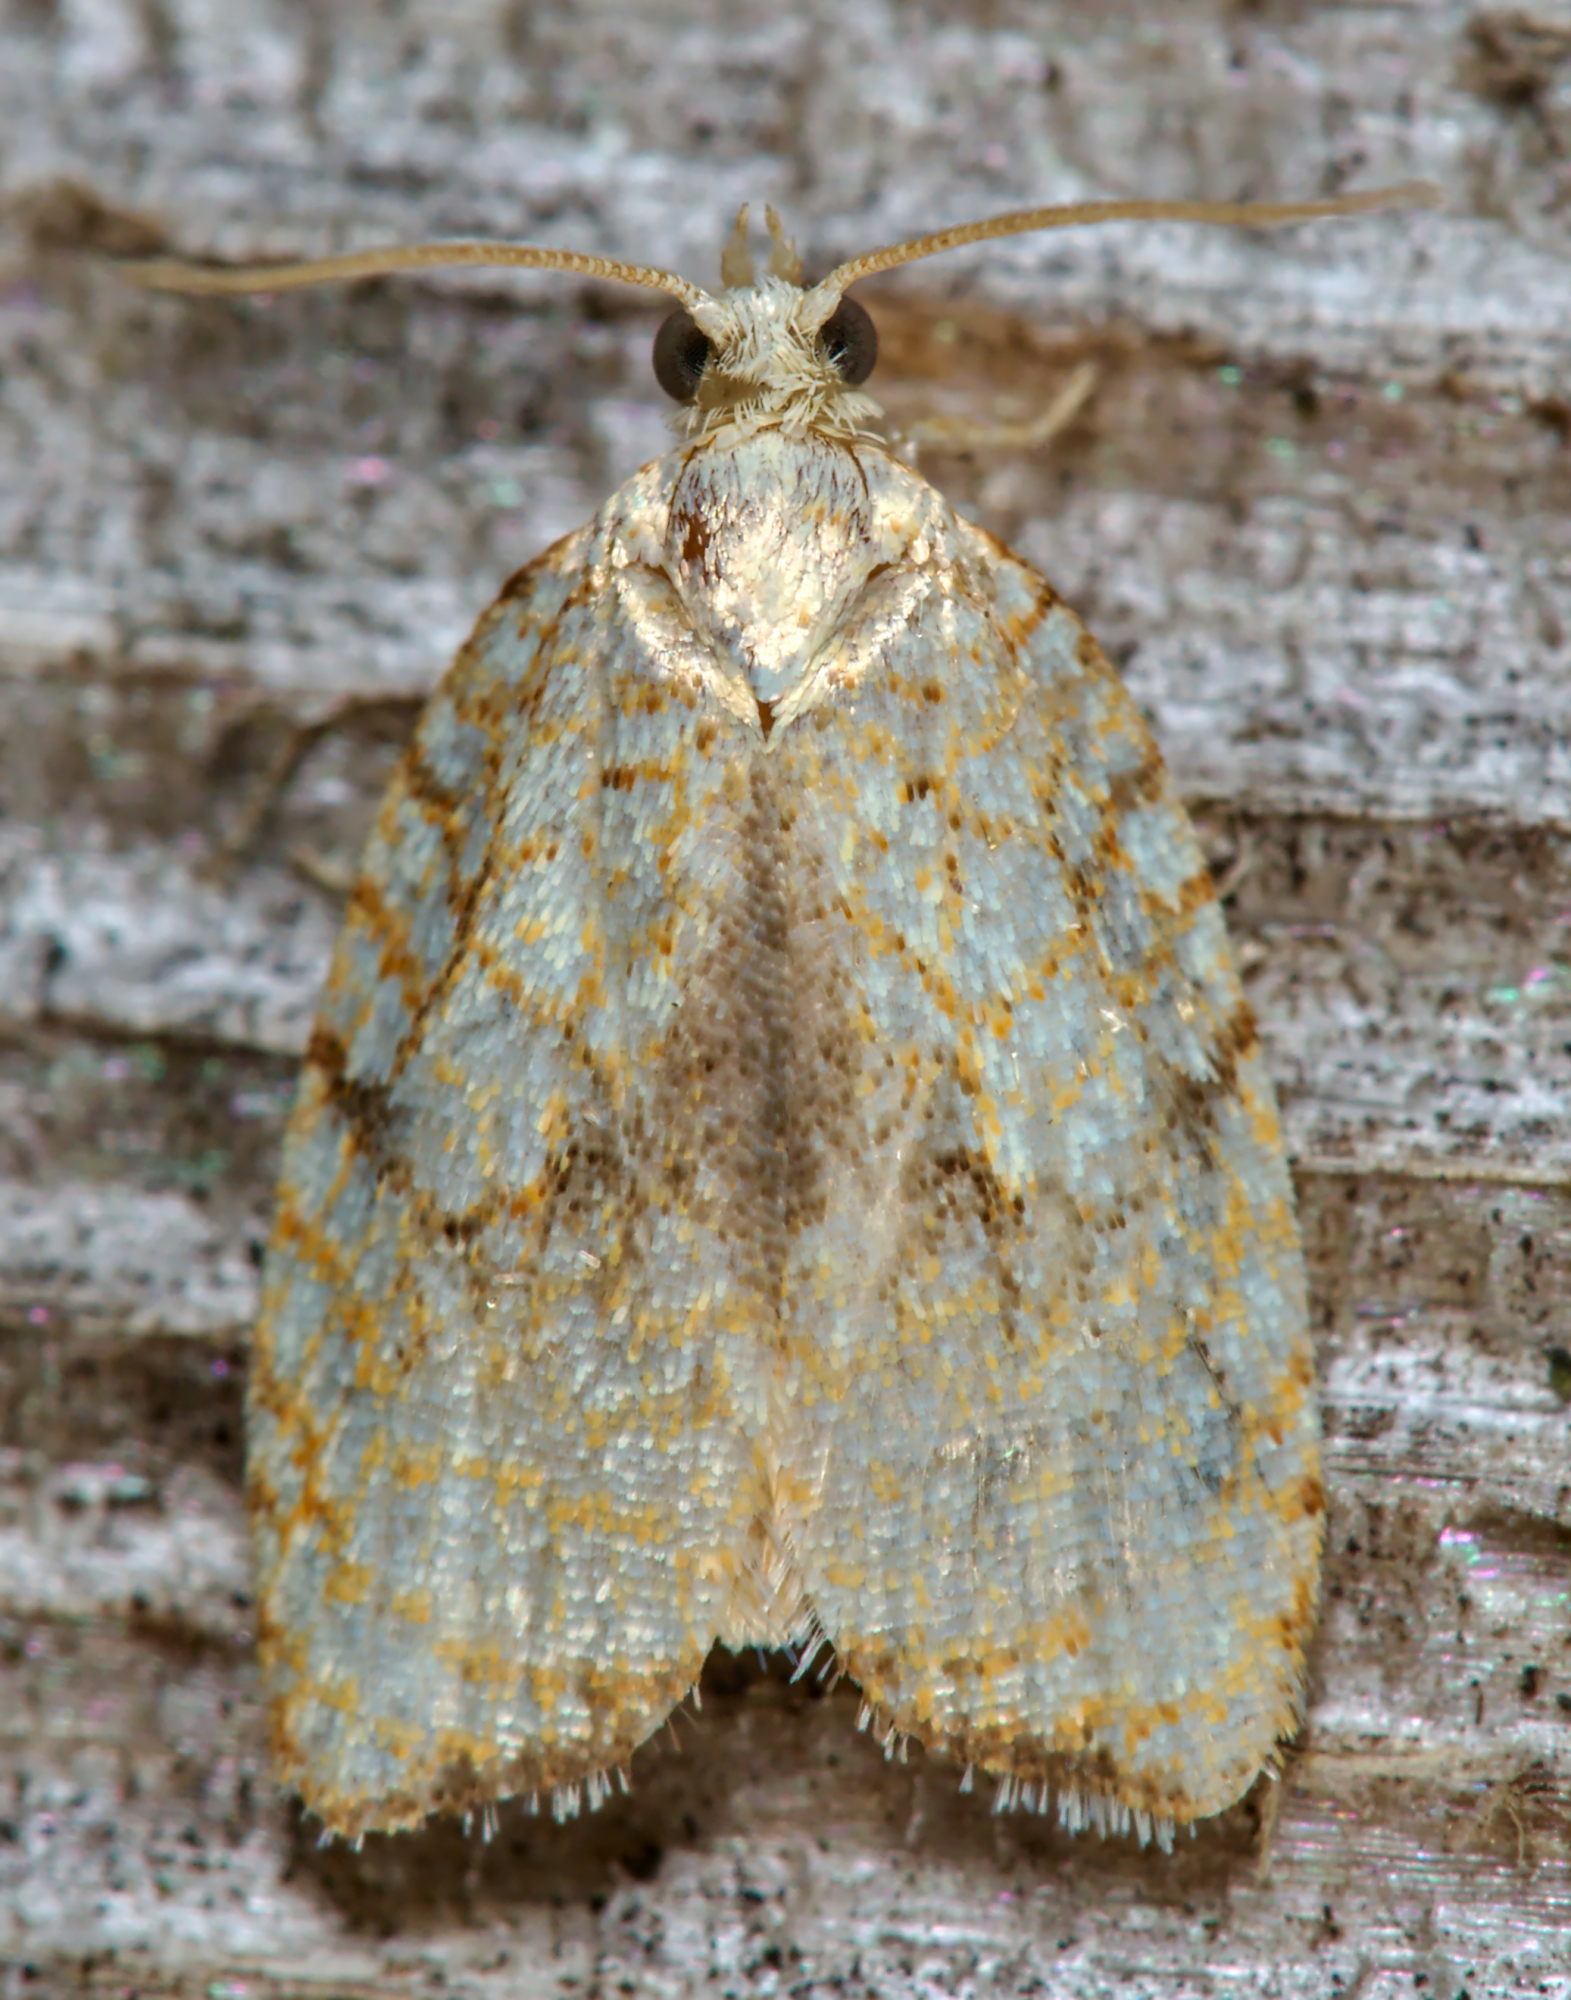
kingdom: Animalia
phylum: Arthropoda
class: Insecta
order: Lepidoptera
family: Tortricidae
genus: Acleris
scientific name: Acleris forsskaleana
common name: Maple button
